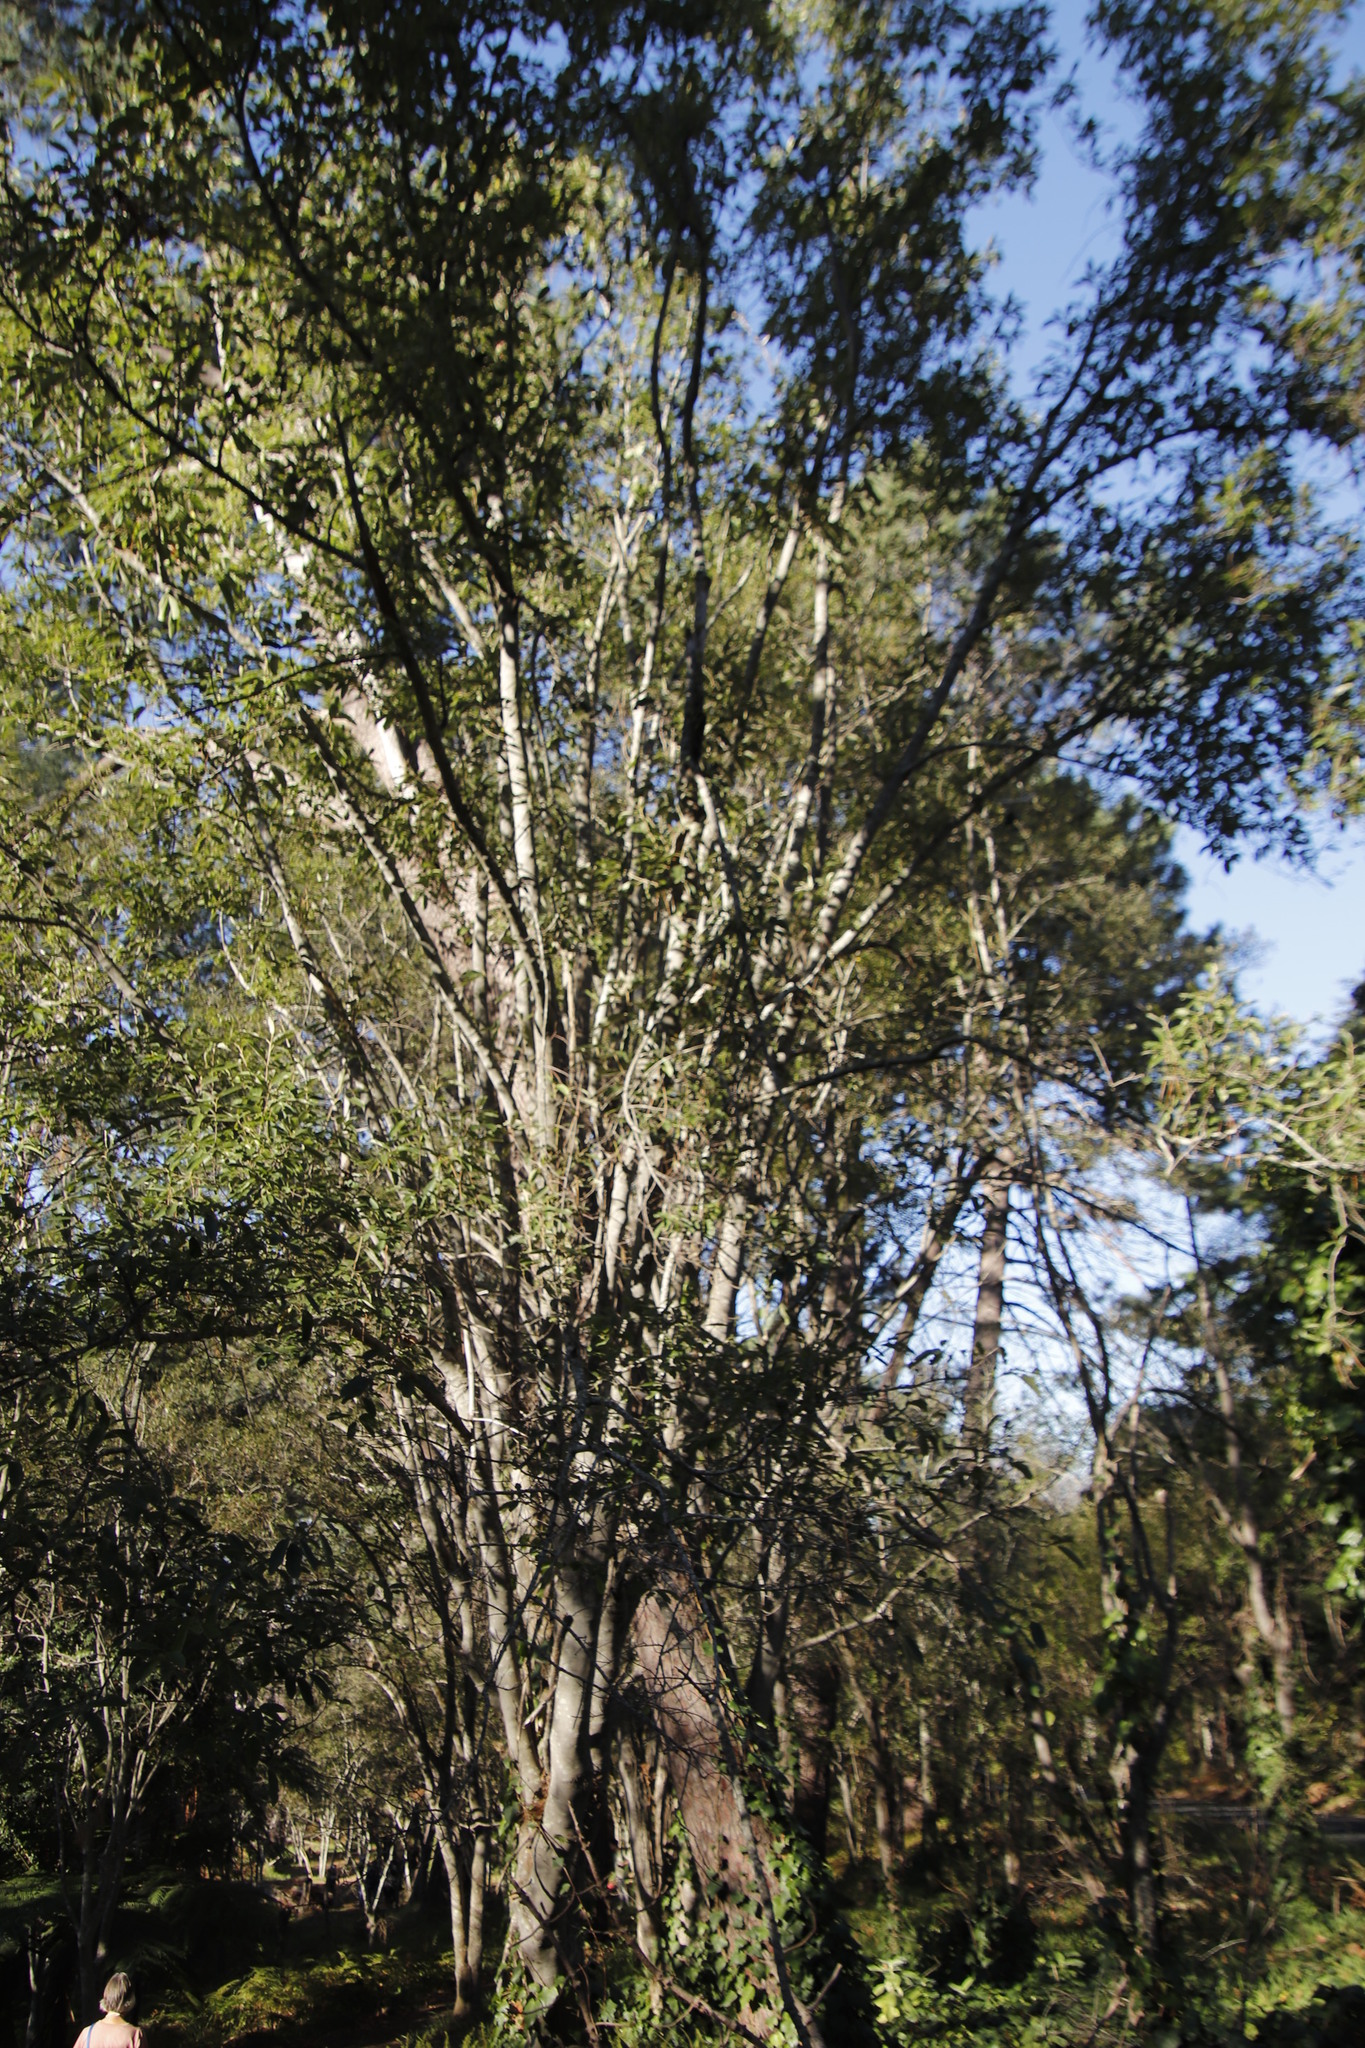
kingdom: Plantae
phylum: Tracheophyta
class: Magnoliopsida
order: Fabales
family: Fabaceae
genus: Acacia
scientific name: Acacia melanoxylon
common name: Blackwood
